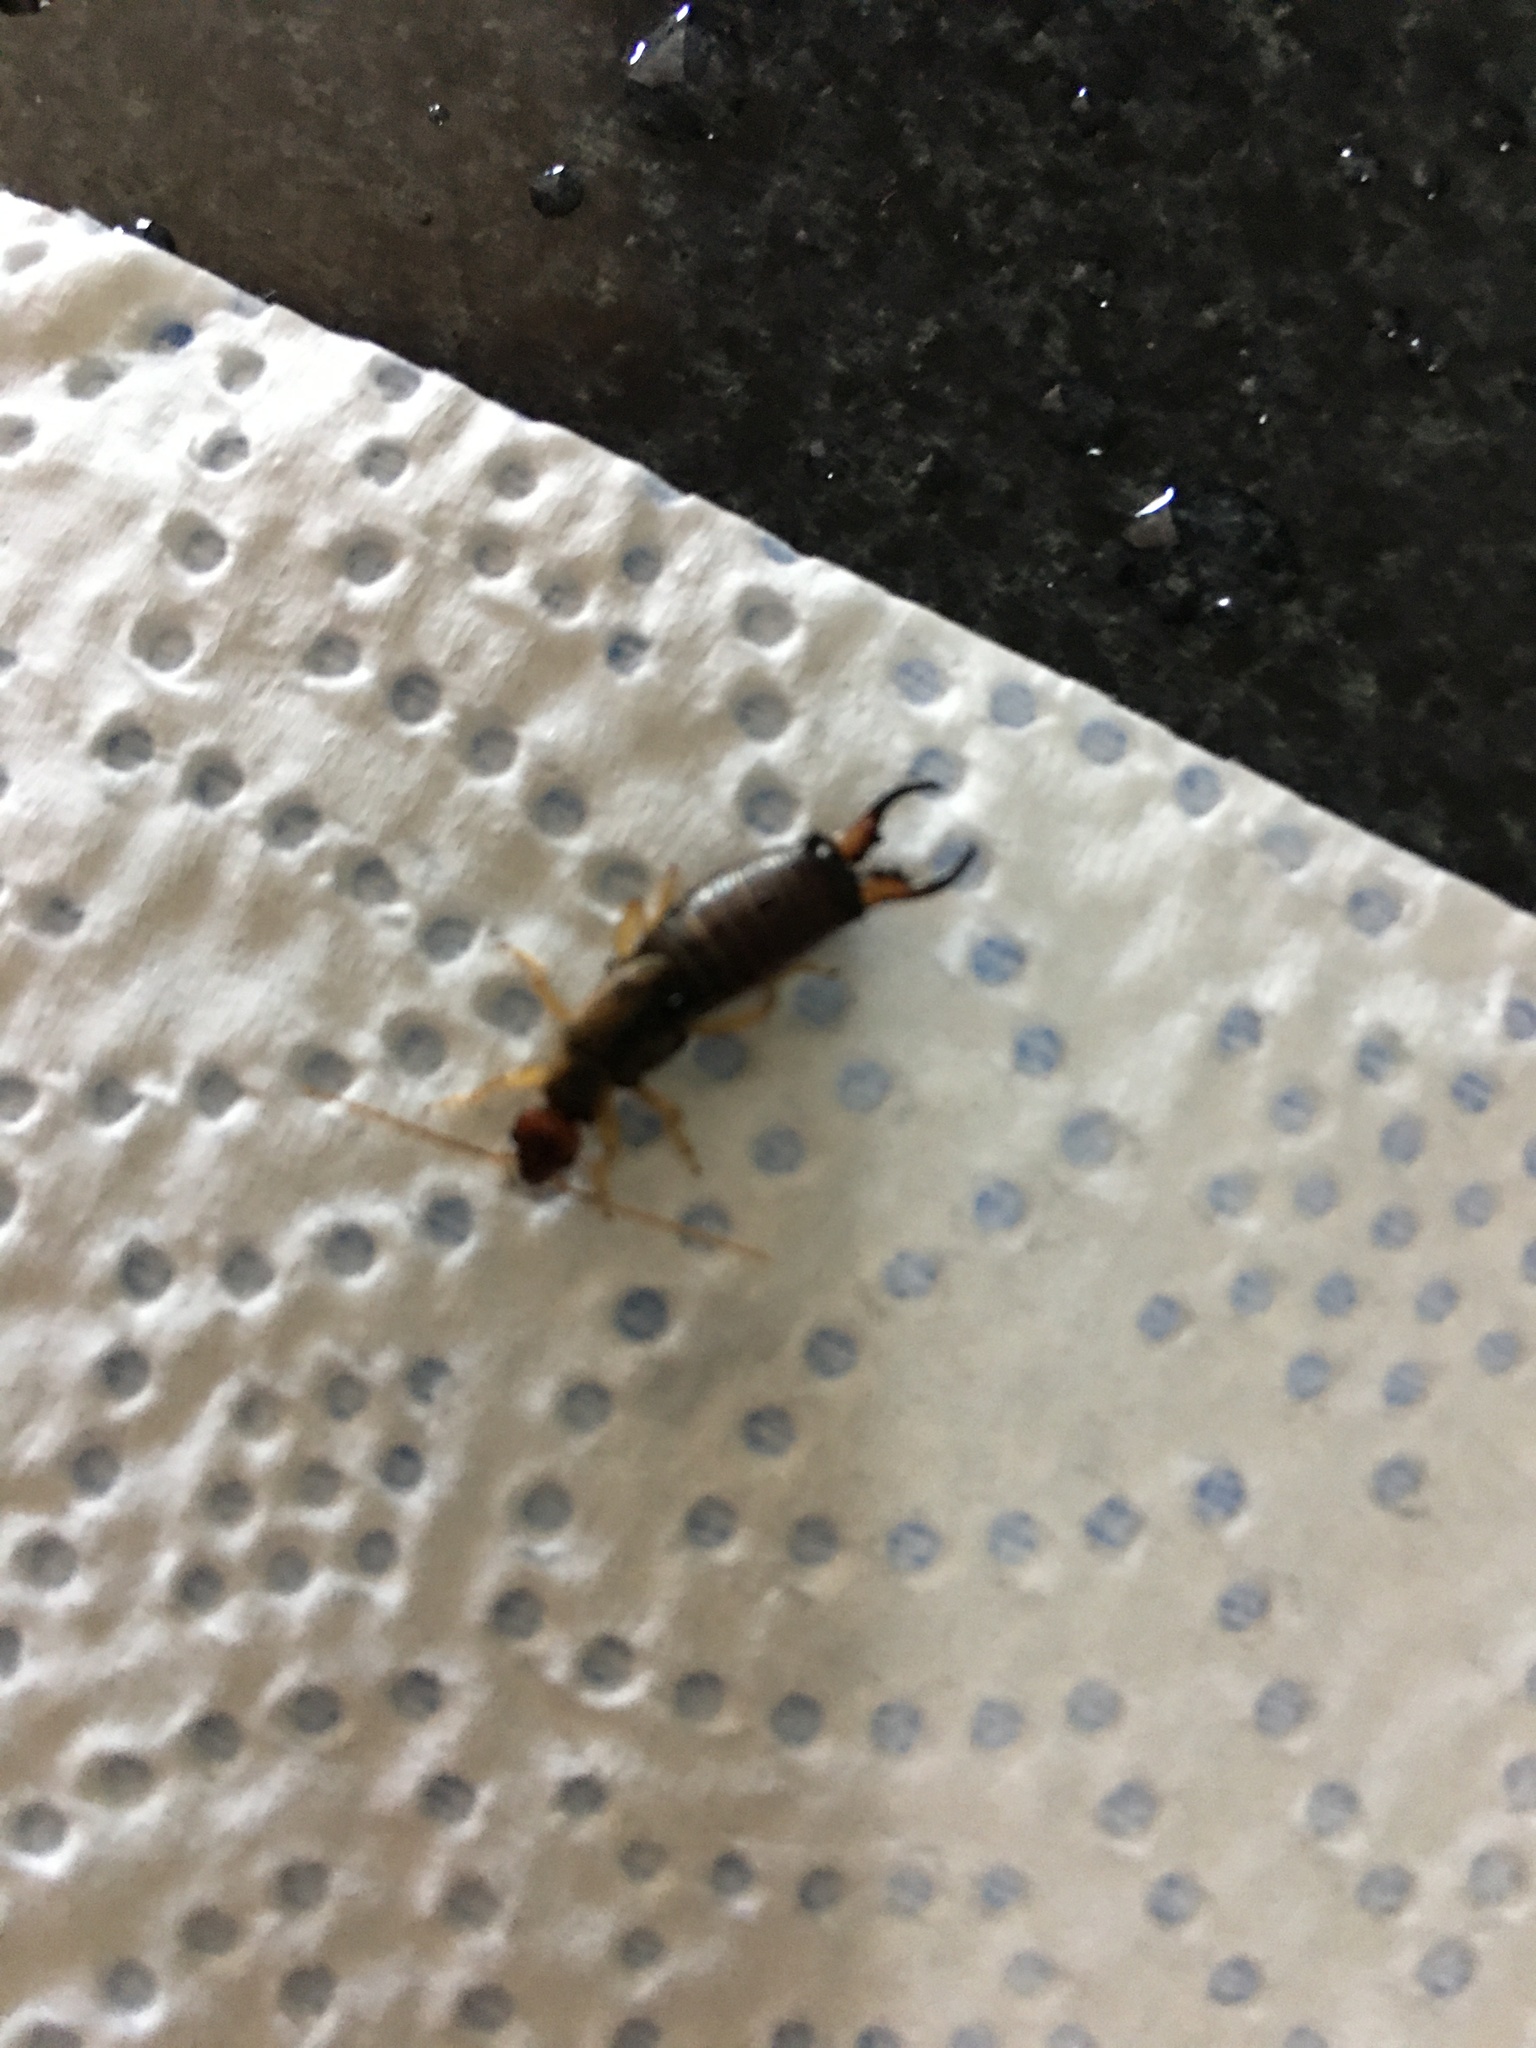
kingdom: Animalia
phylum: Arthropoda
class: Insecta
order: Dermaptera
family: Forficulidae
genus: Forficula
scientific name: Forficula
